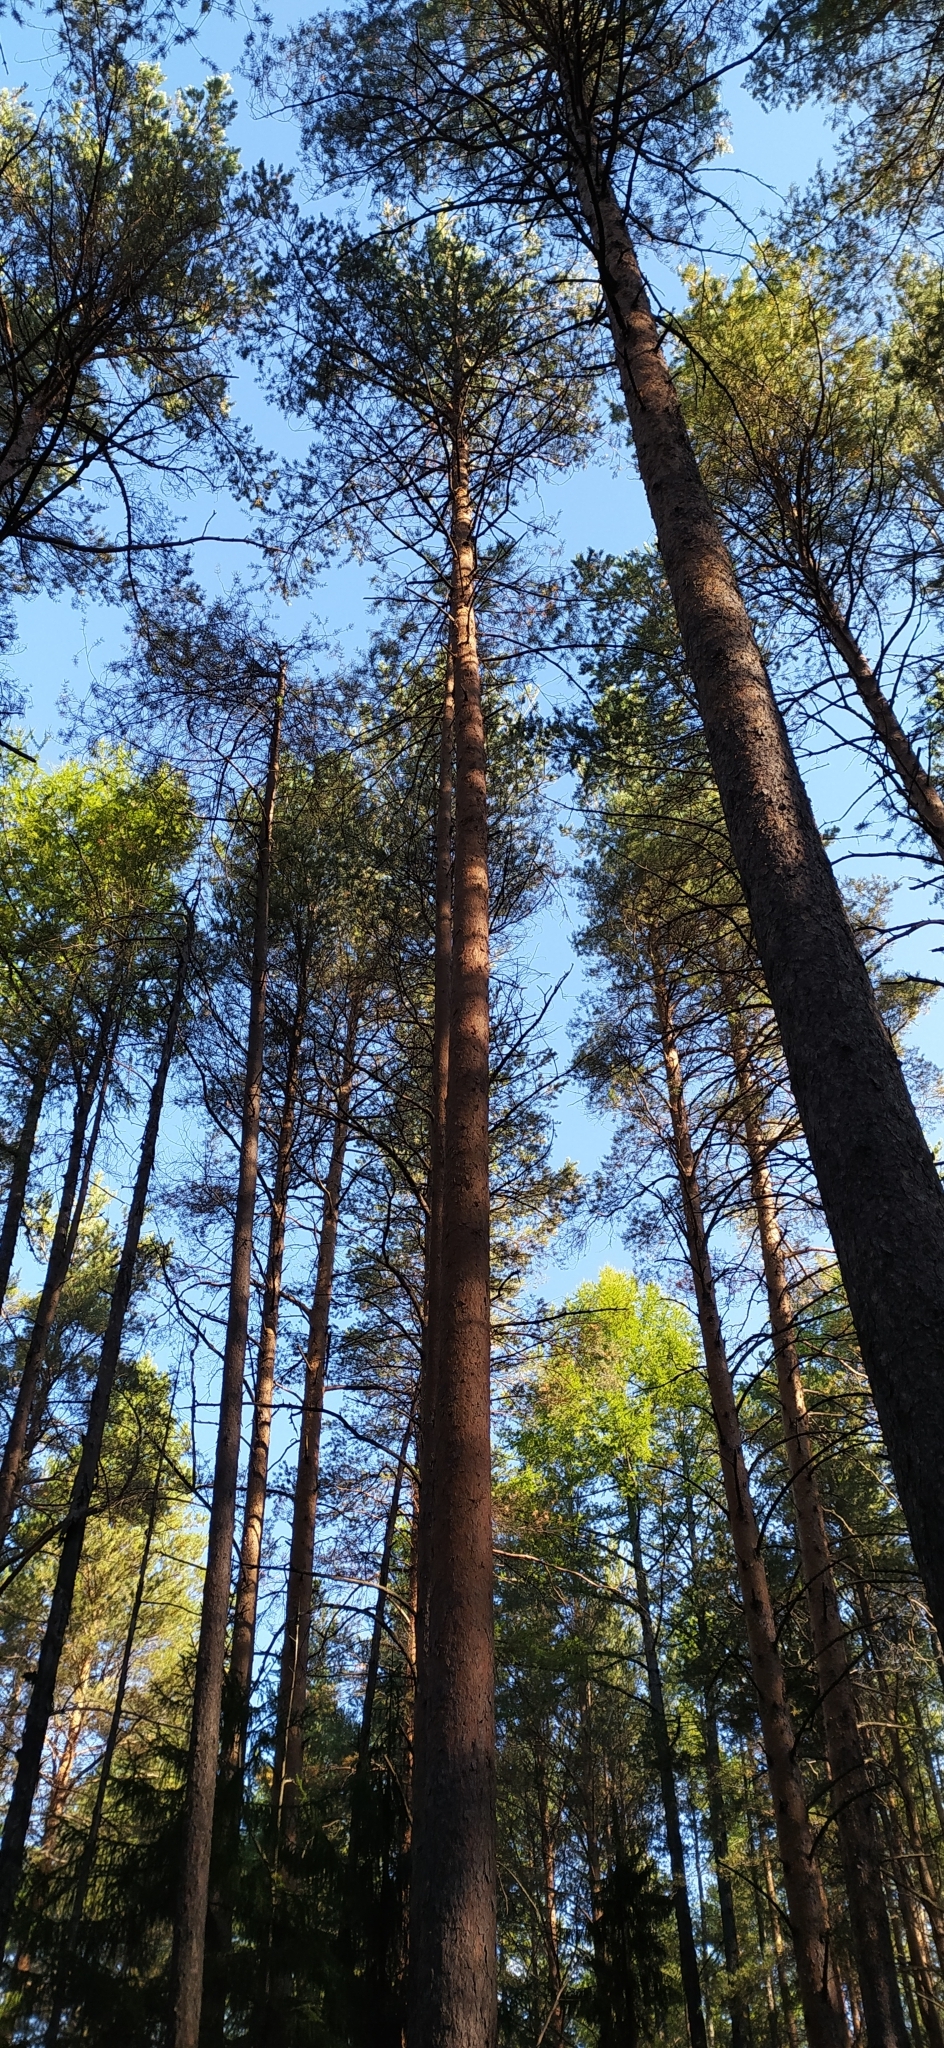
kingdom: Plantae
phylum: Tracheophyta
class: Pinopsida
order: Pinales
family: Pinaceae
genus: Pinus
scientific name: Pinus sylvestris
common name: Scots pine
